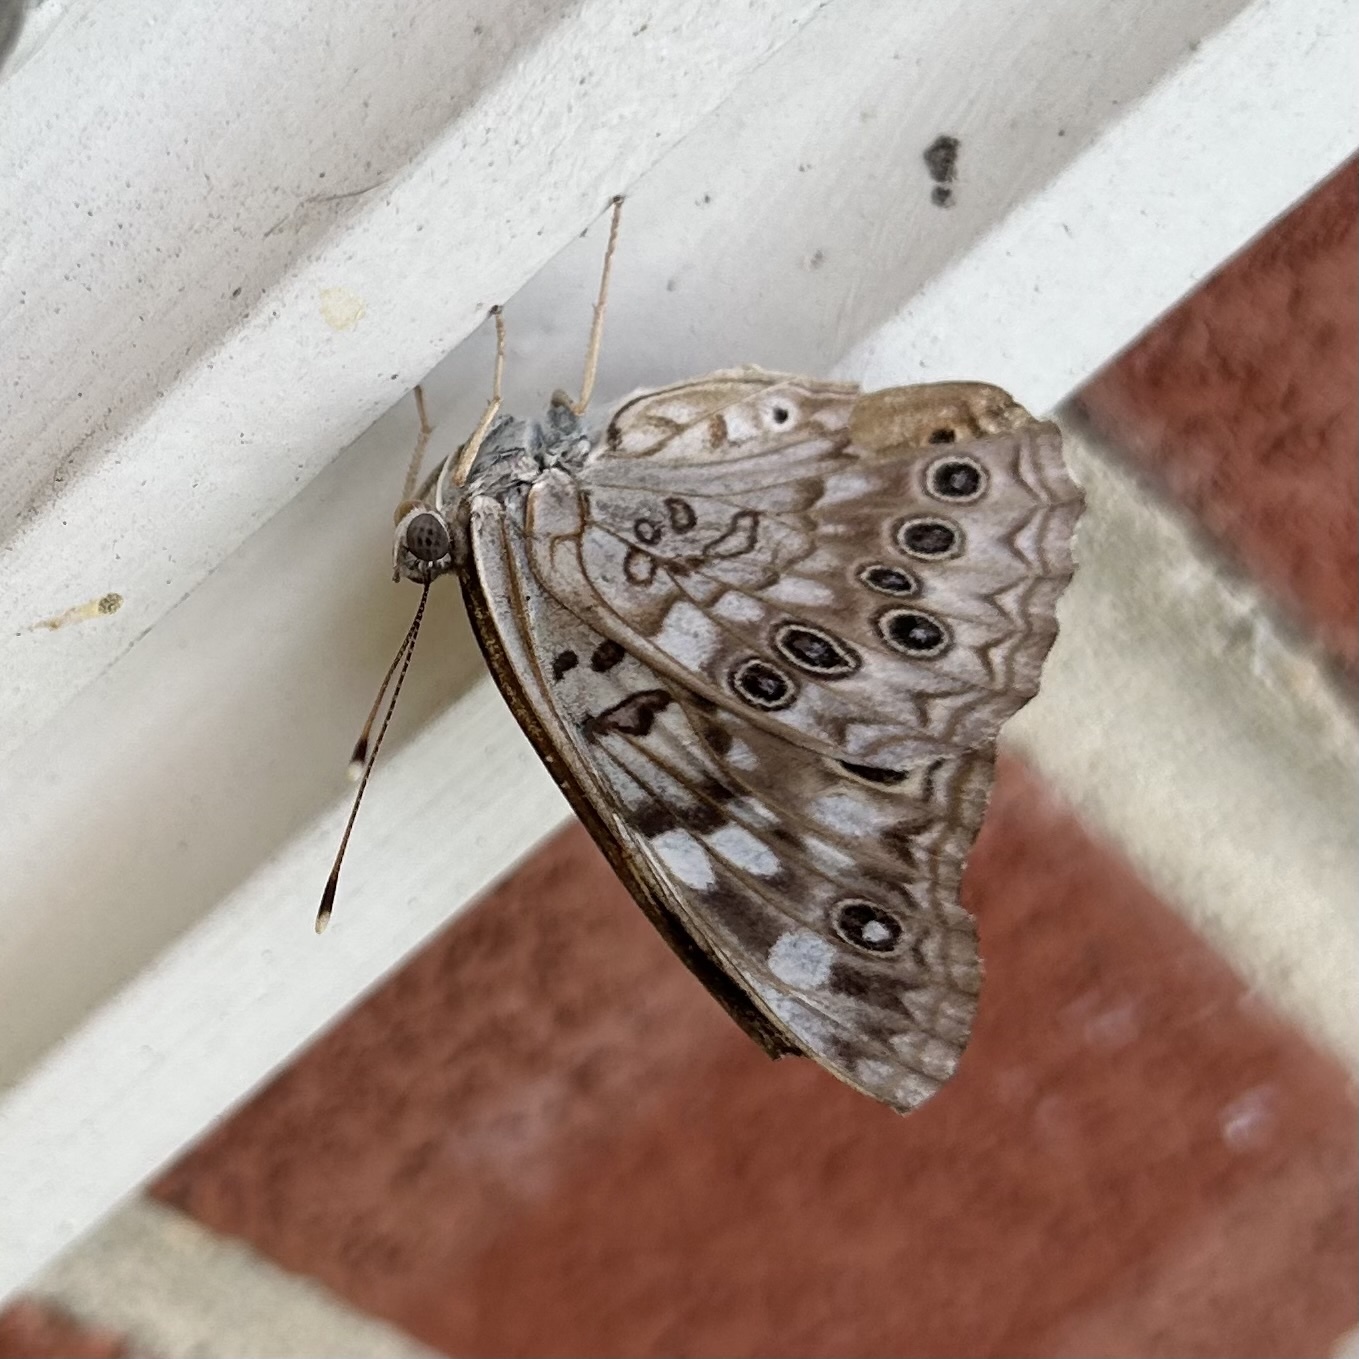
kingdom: Animalia
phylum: Arthropoda
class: Insecta
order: Lepidoptera
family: Nymphalidae
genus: Asterocampa
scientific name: Asterocampa celtis
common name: Hackberry emperor
